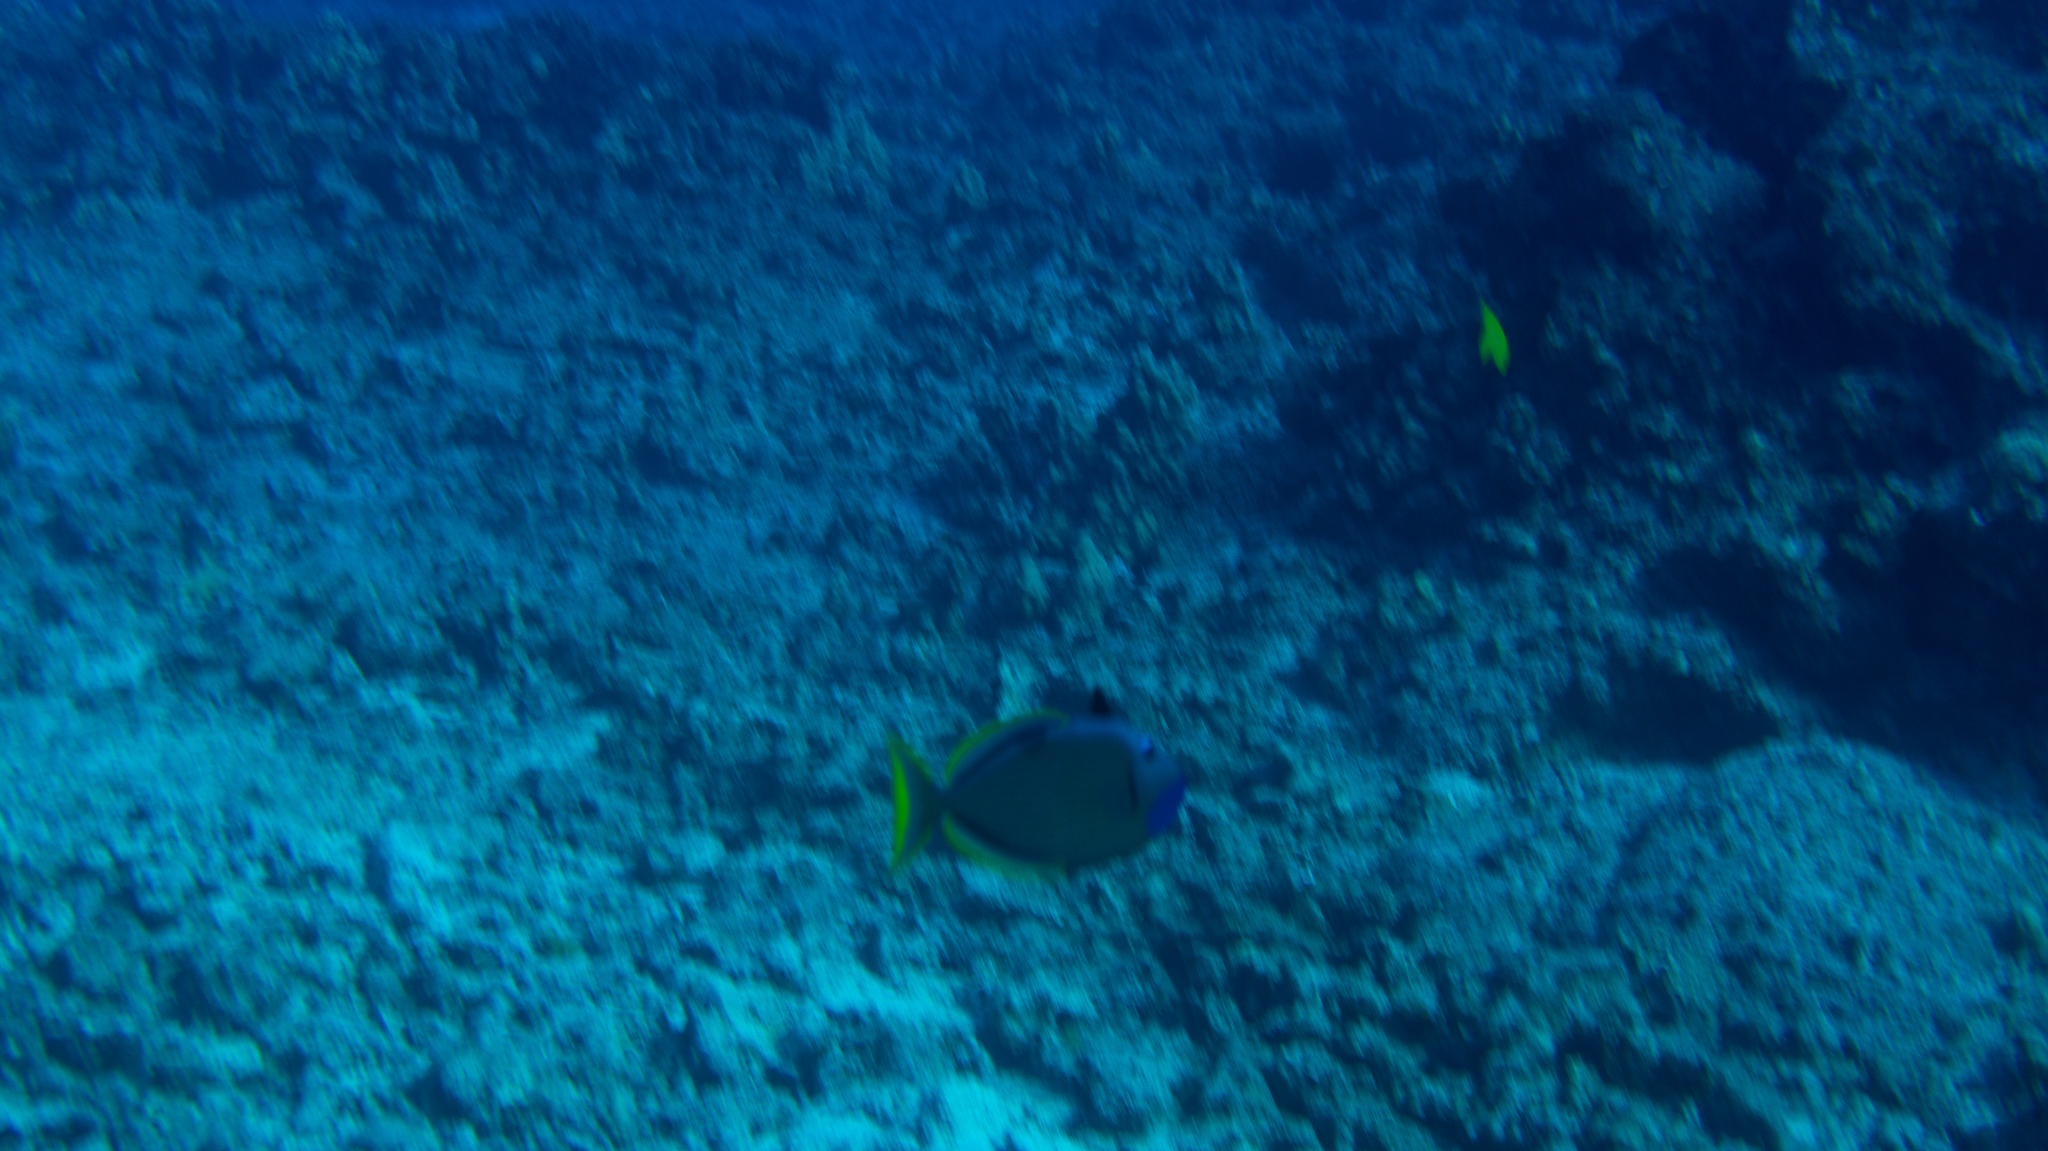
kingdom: Animalia
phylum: Chordata
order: Tetraodontiformes
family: Balistidae
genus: Xanthichthys
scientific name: Xanthichthys auromarginatus
